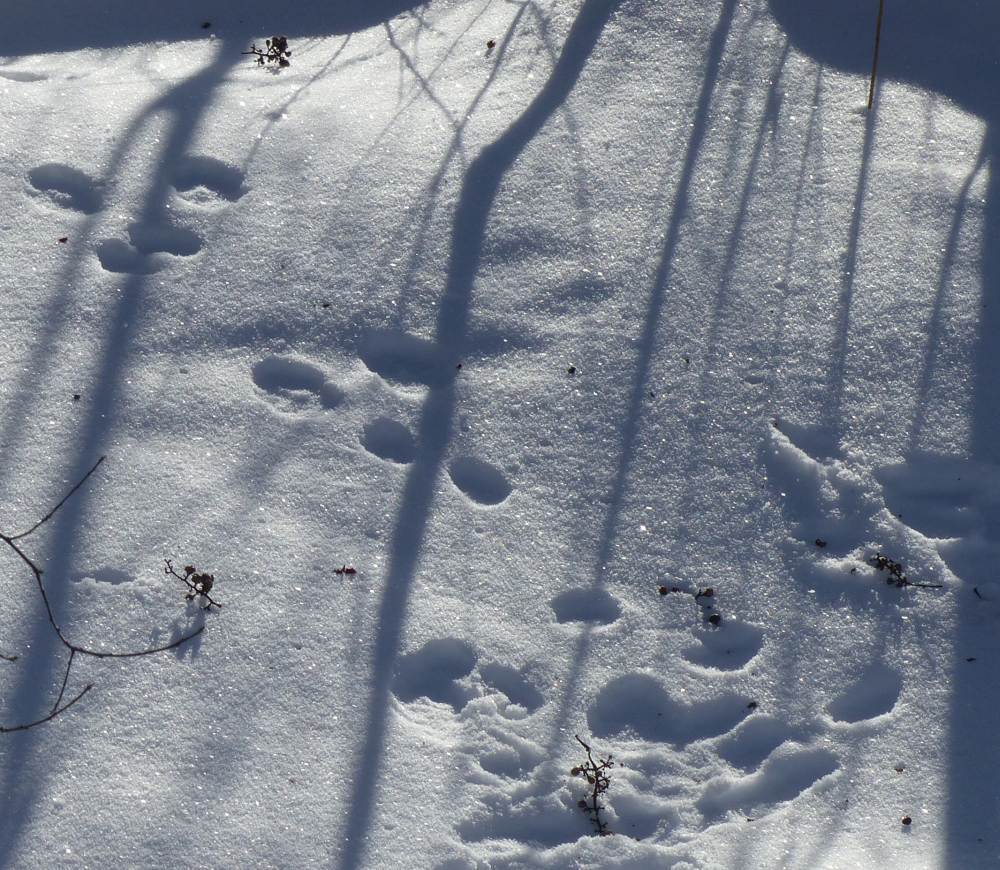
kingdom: Animalia
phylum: Chordata
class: Mammalia
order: Lagomorpha
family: Leporidae
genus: Lepus
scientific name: Lepus americanus
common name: Snowshoe hare
